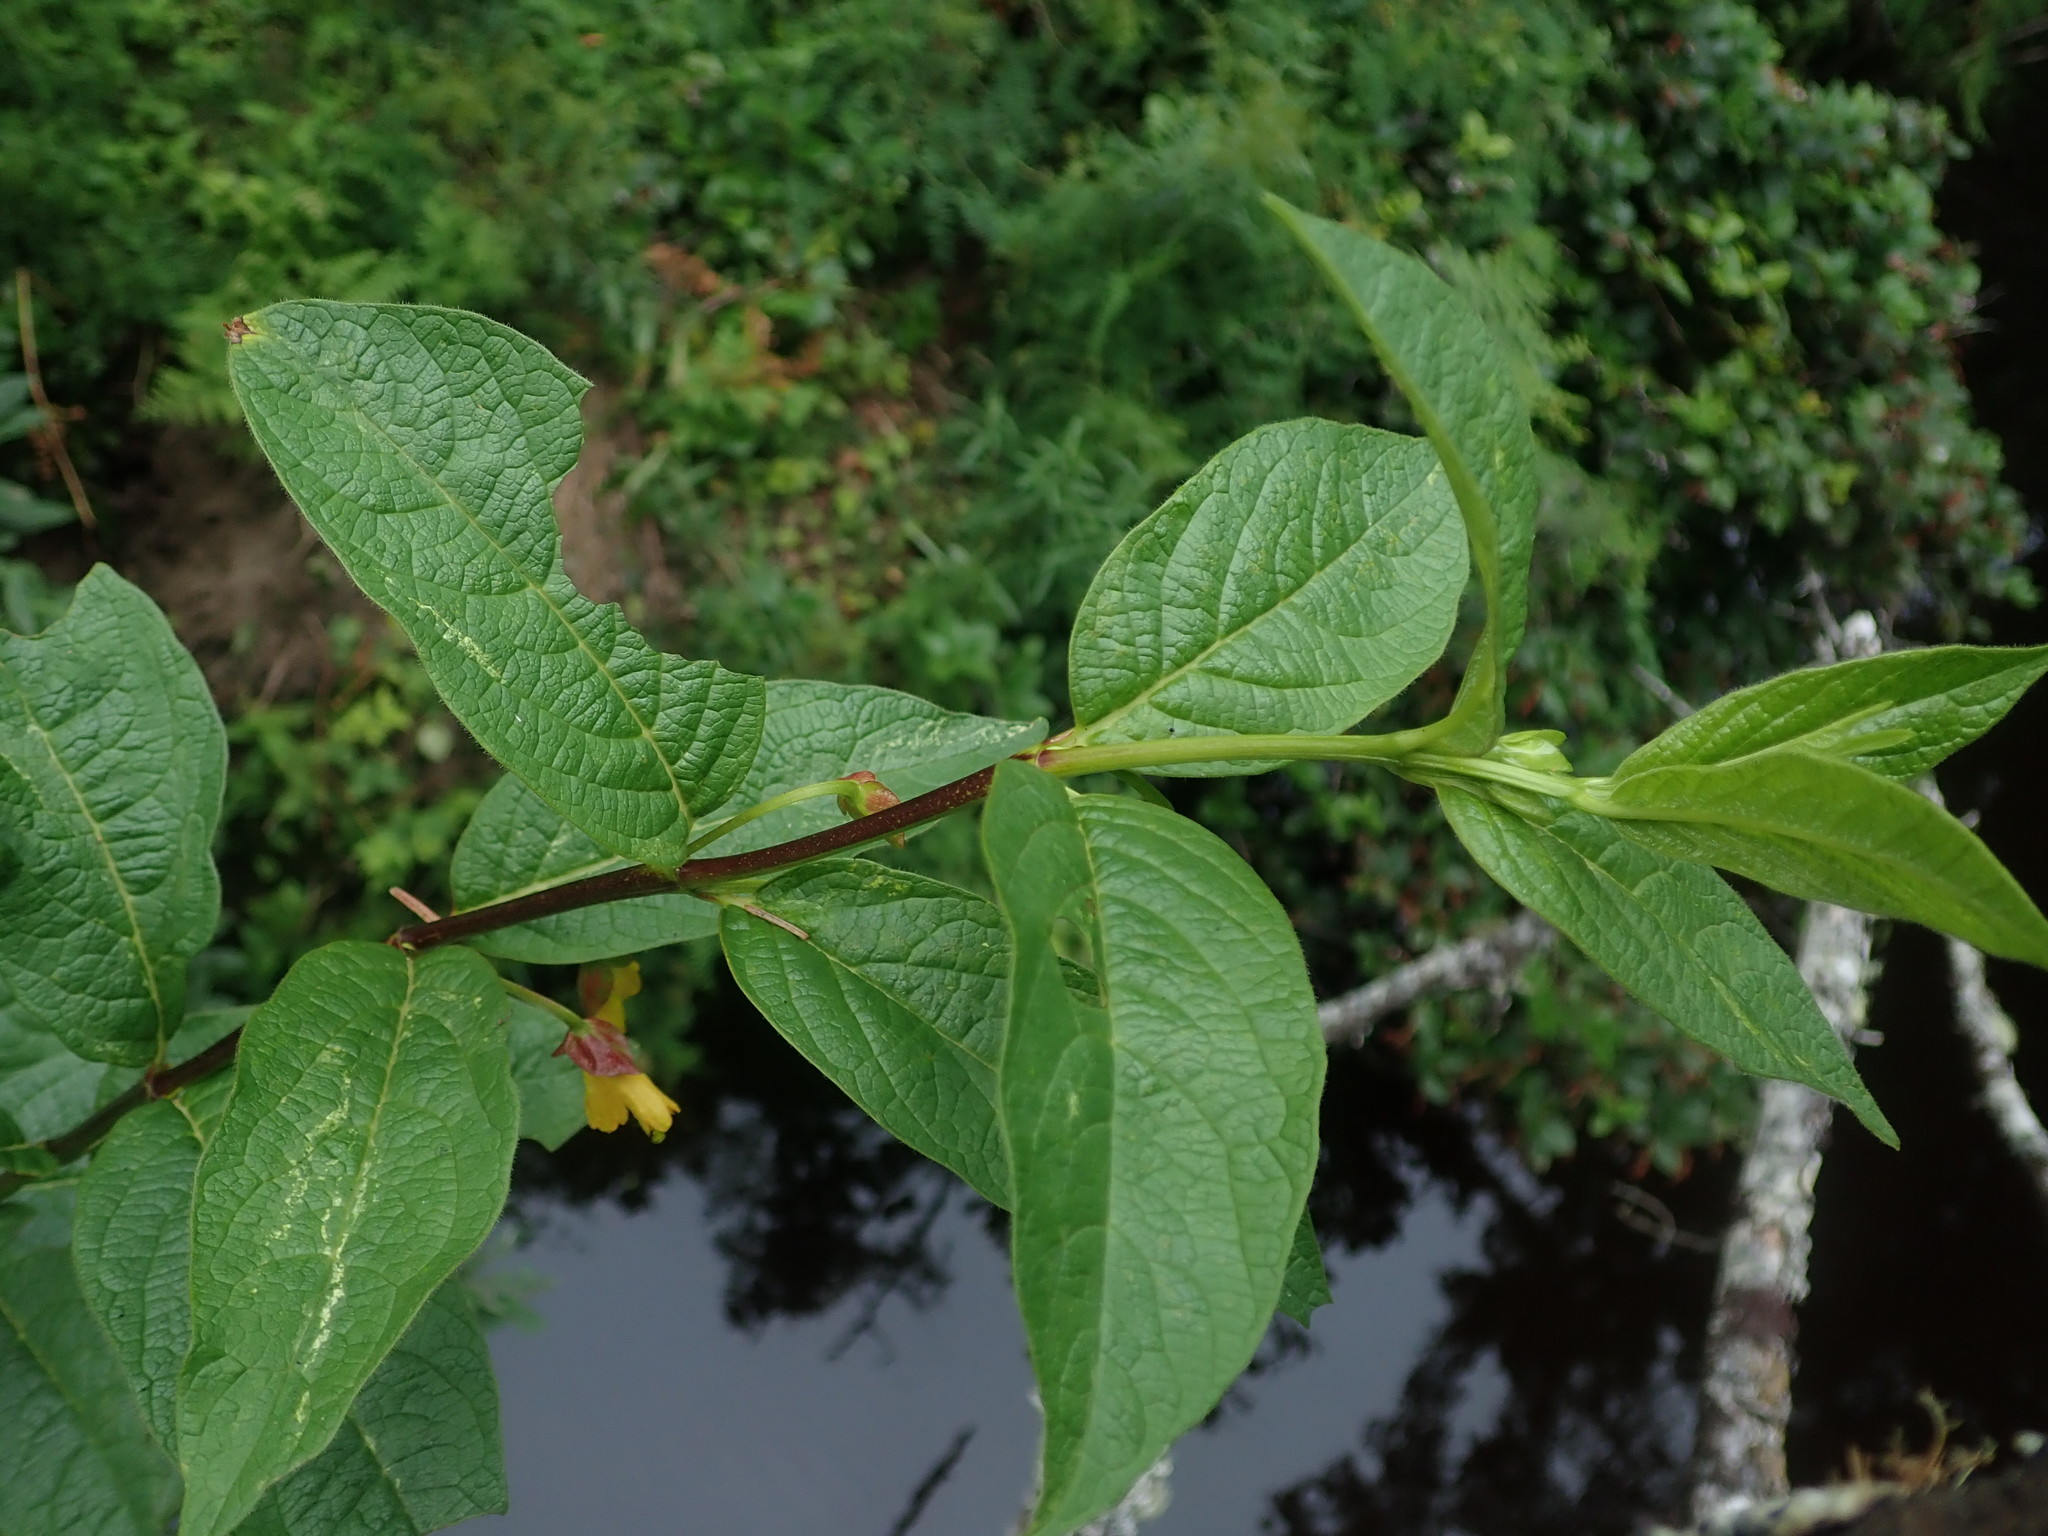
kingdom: Plantae
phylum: Tracheophyta
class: Magnoliopsida
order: Dipsacales
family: Caprifoliaceae
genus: Lonicera
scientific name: Lonicera involucrata
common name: Californian honeysuckle
